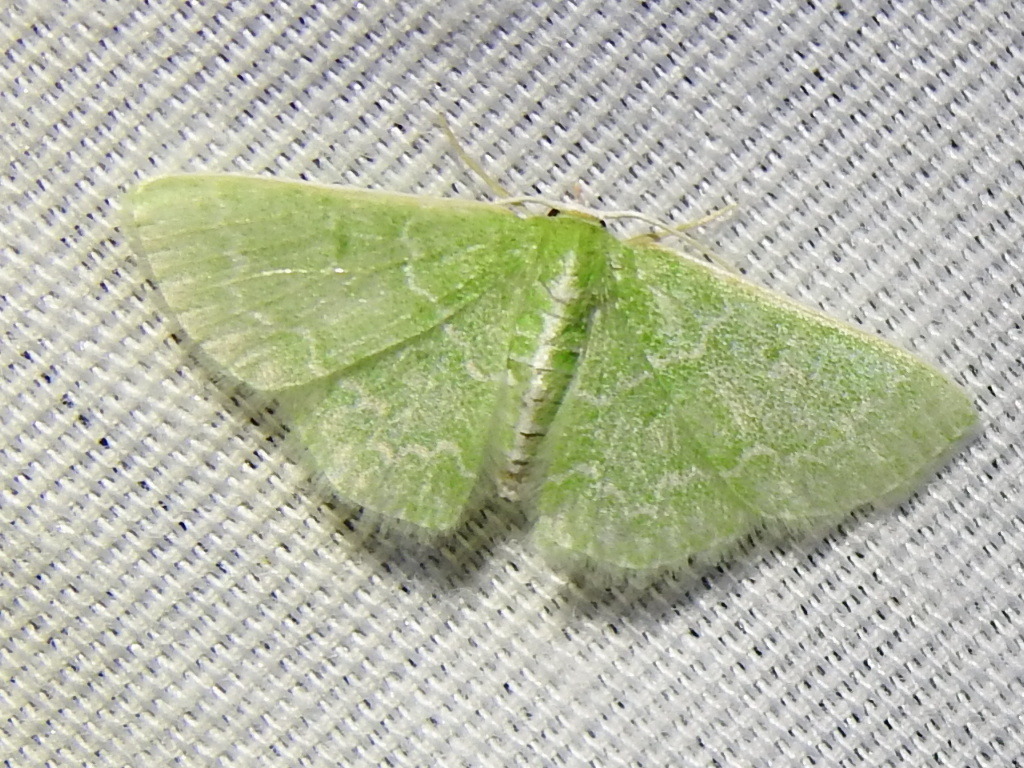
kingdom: Animalia
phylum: Arthropoda
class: Insecta
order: Lepidoptera
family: Geometridae
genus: Synchlora
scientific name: Synchlora frondaria
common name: Southern emerald
